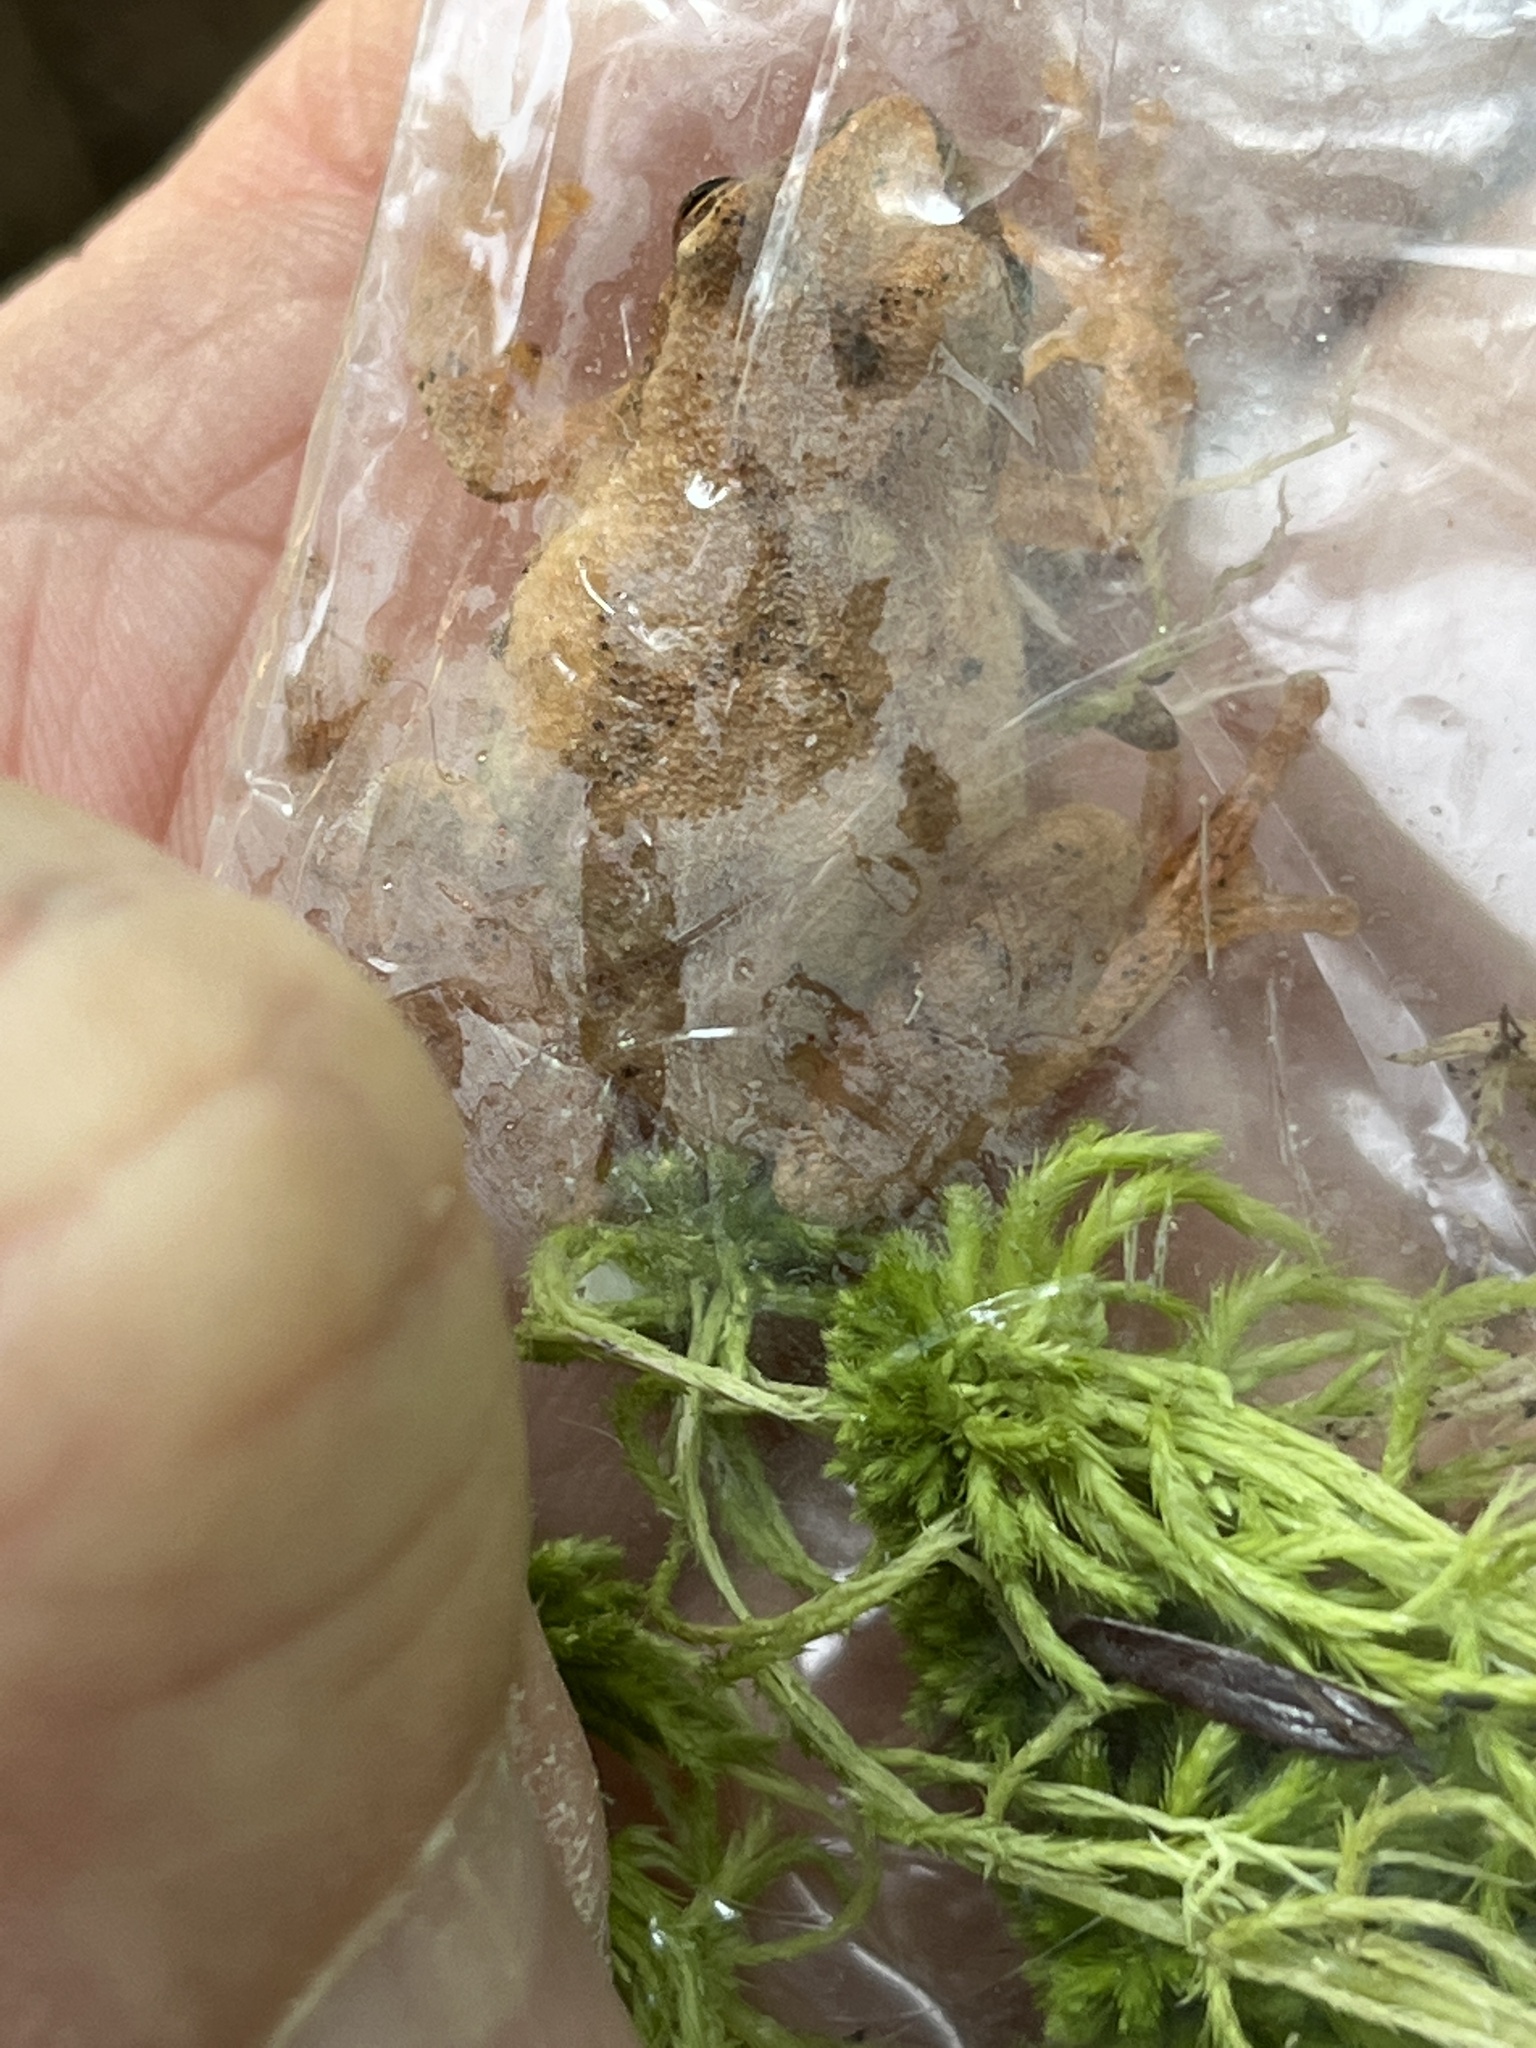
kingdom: Animalia
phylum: Chordata
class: Amphibia
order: Anura
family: Hylidae
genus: Pseudacris
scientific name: Pseudacris crucifer
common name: Spring peeper
